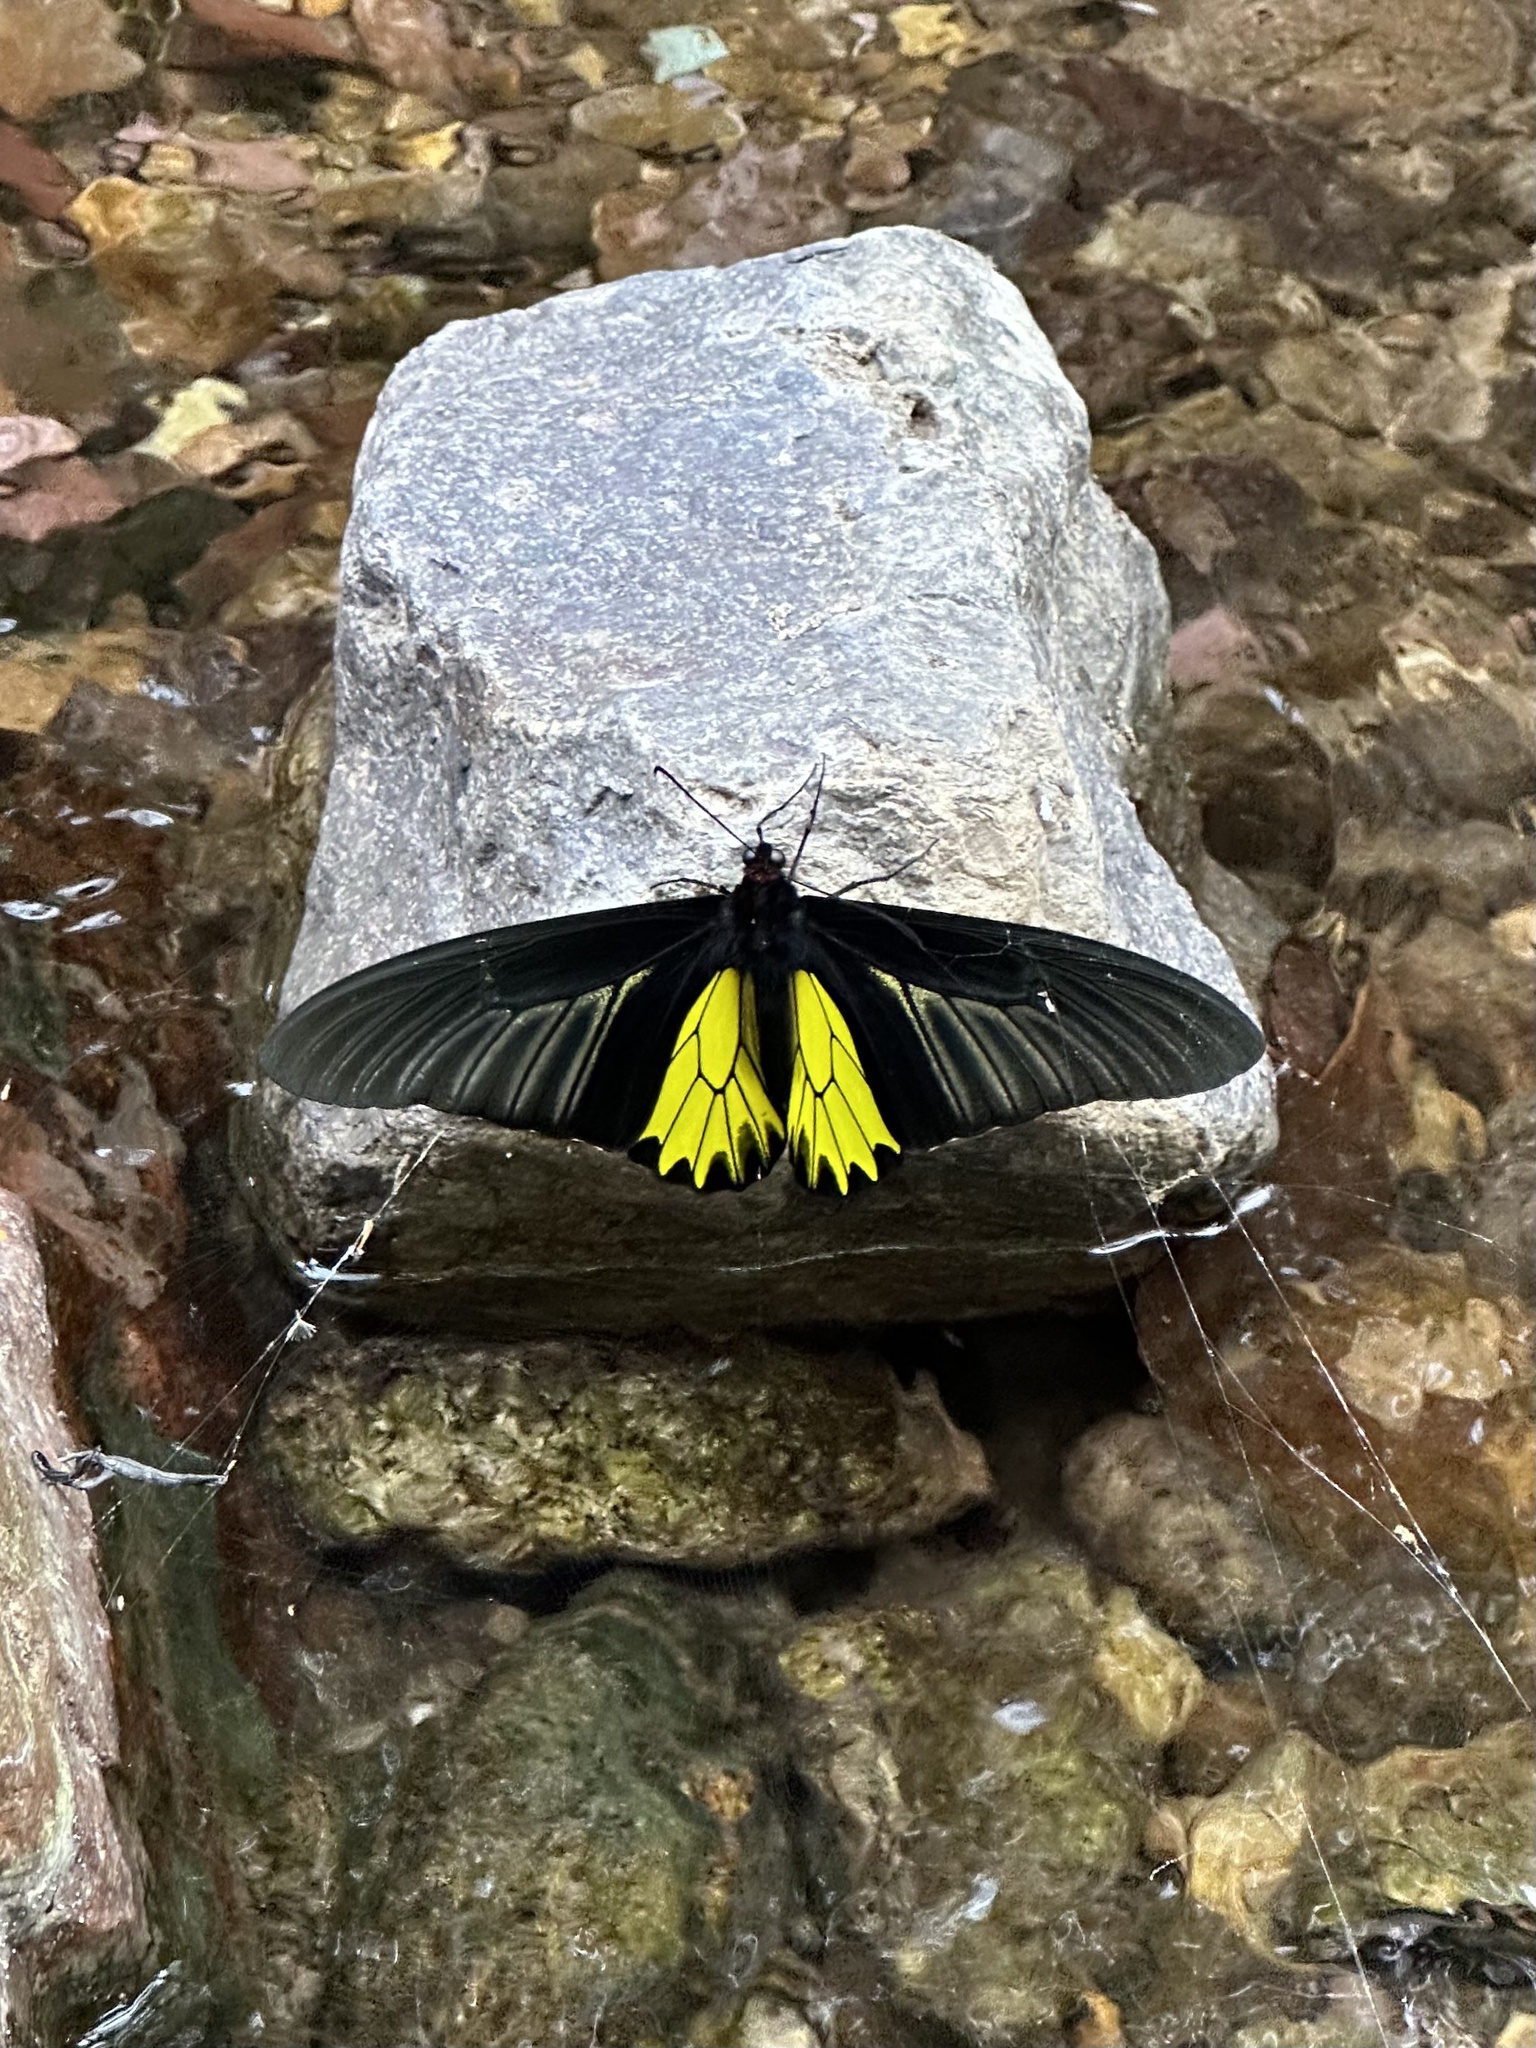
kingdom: Animalia
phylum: Arthropoda
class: Insecta
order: Lepidoptera
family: Papilionidae
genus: Troides
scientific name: Troides aeacus
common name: Golden birdwing
